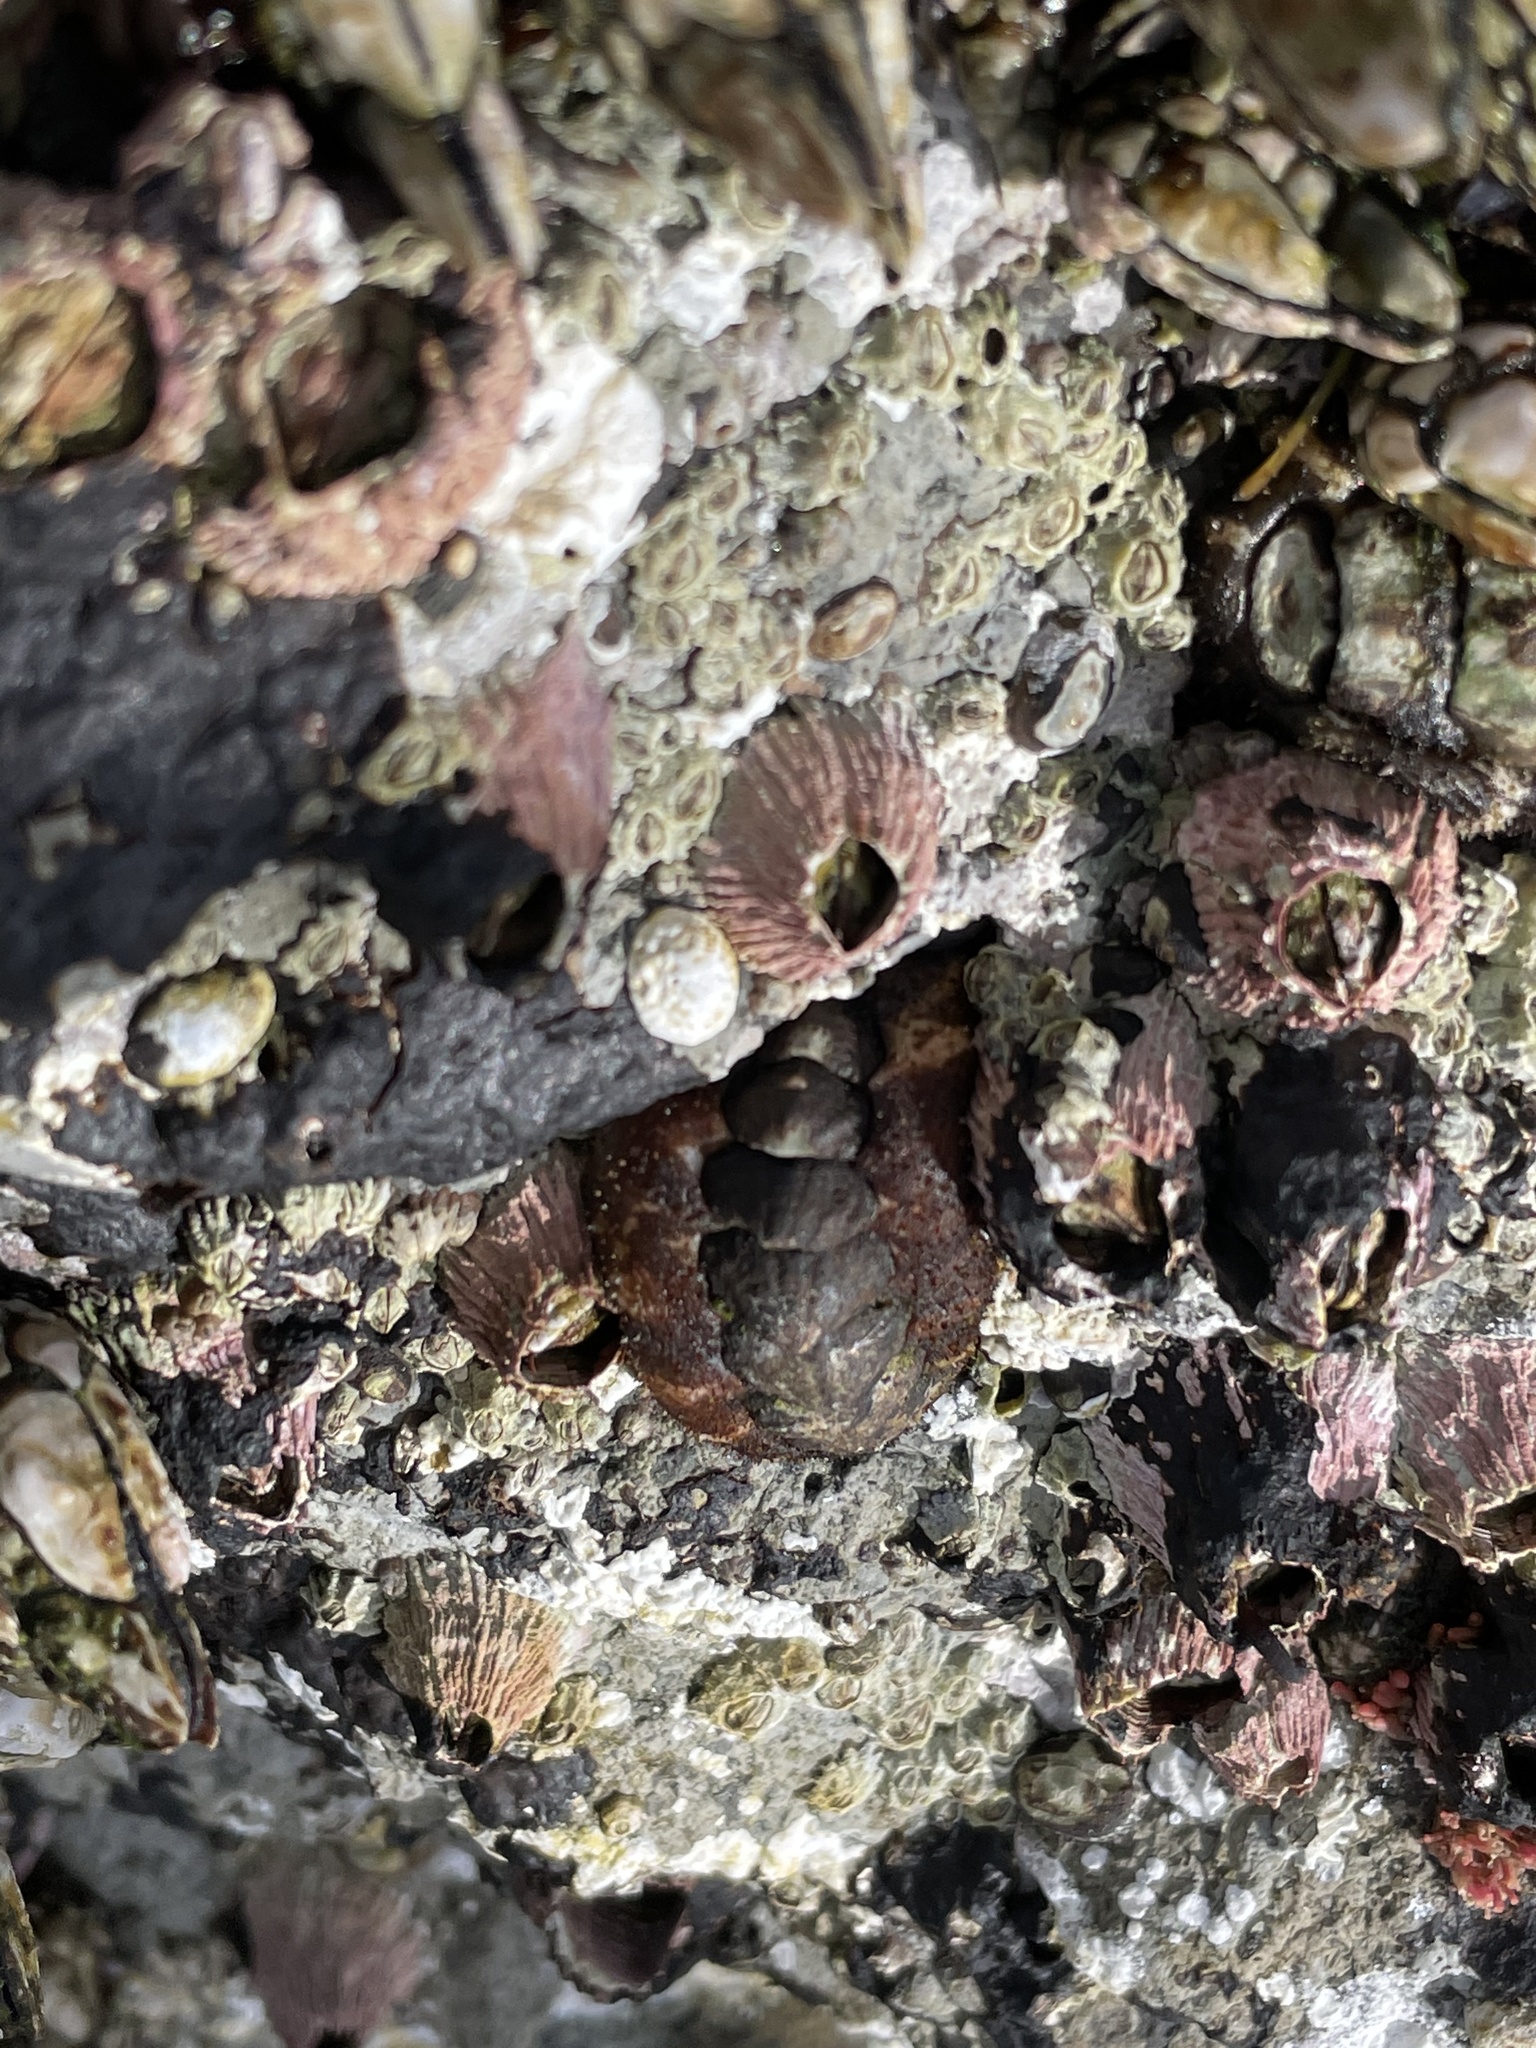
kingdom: Animalia
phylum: Mollusca
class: Polyplacophora
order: Chitonida
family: Tonicellidae
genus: Nuttallina
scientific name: Nuttallina californica
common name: California nuttall chiton
